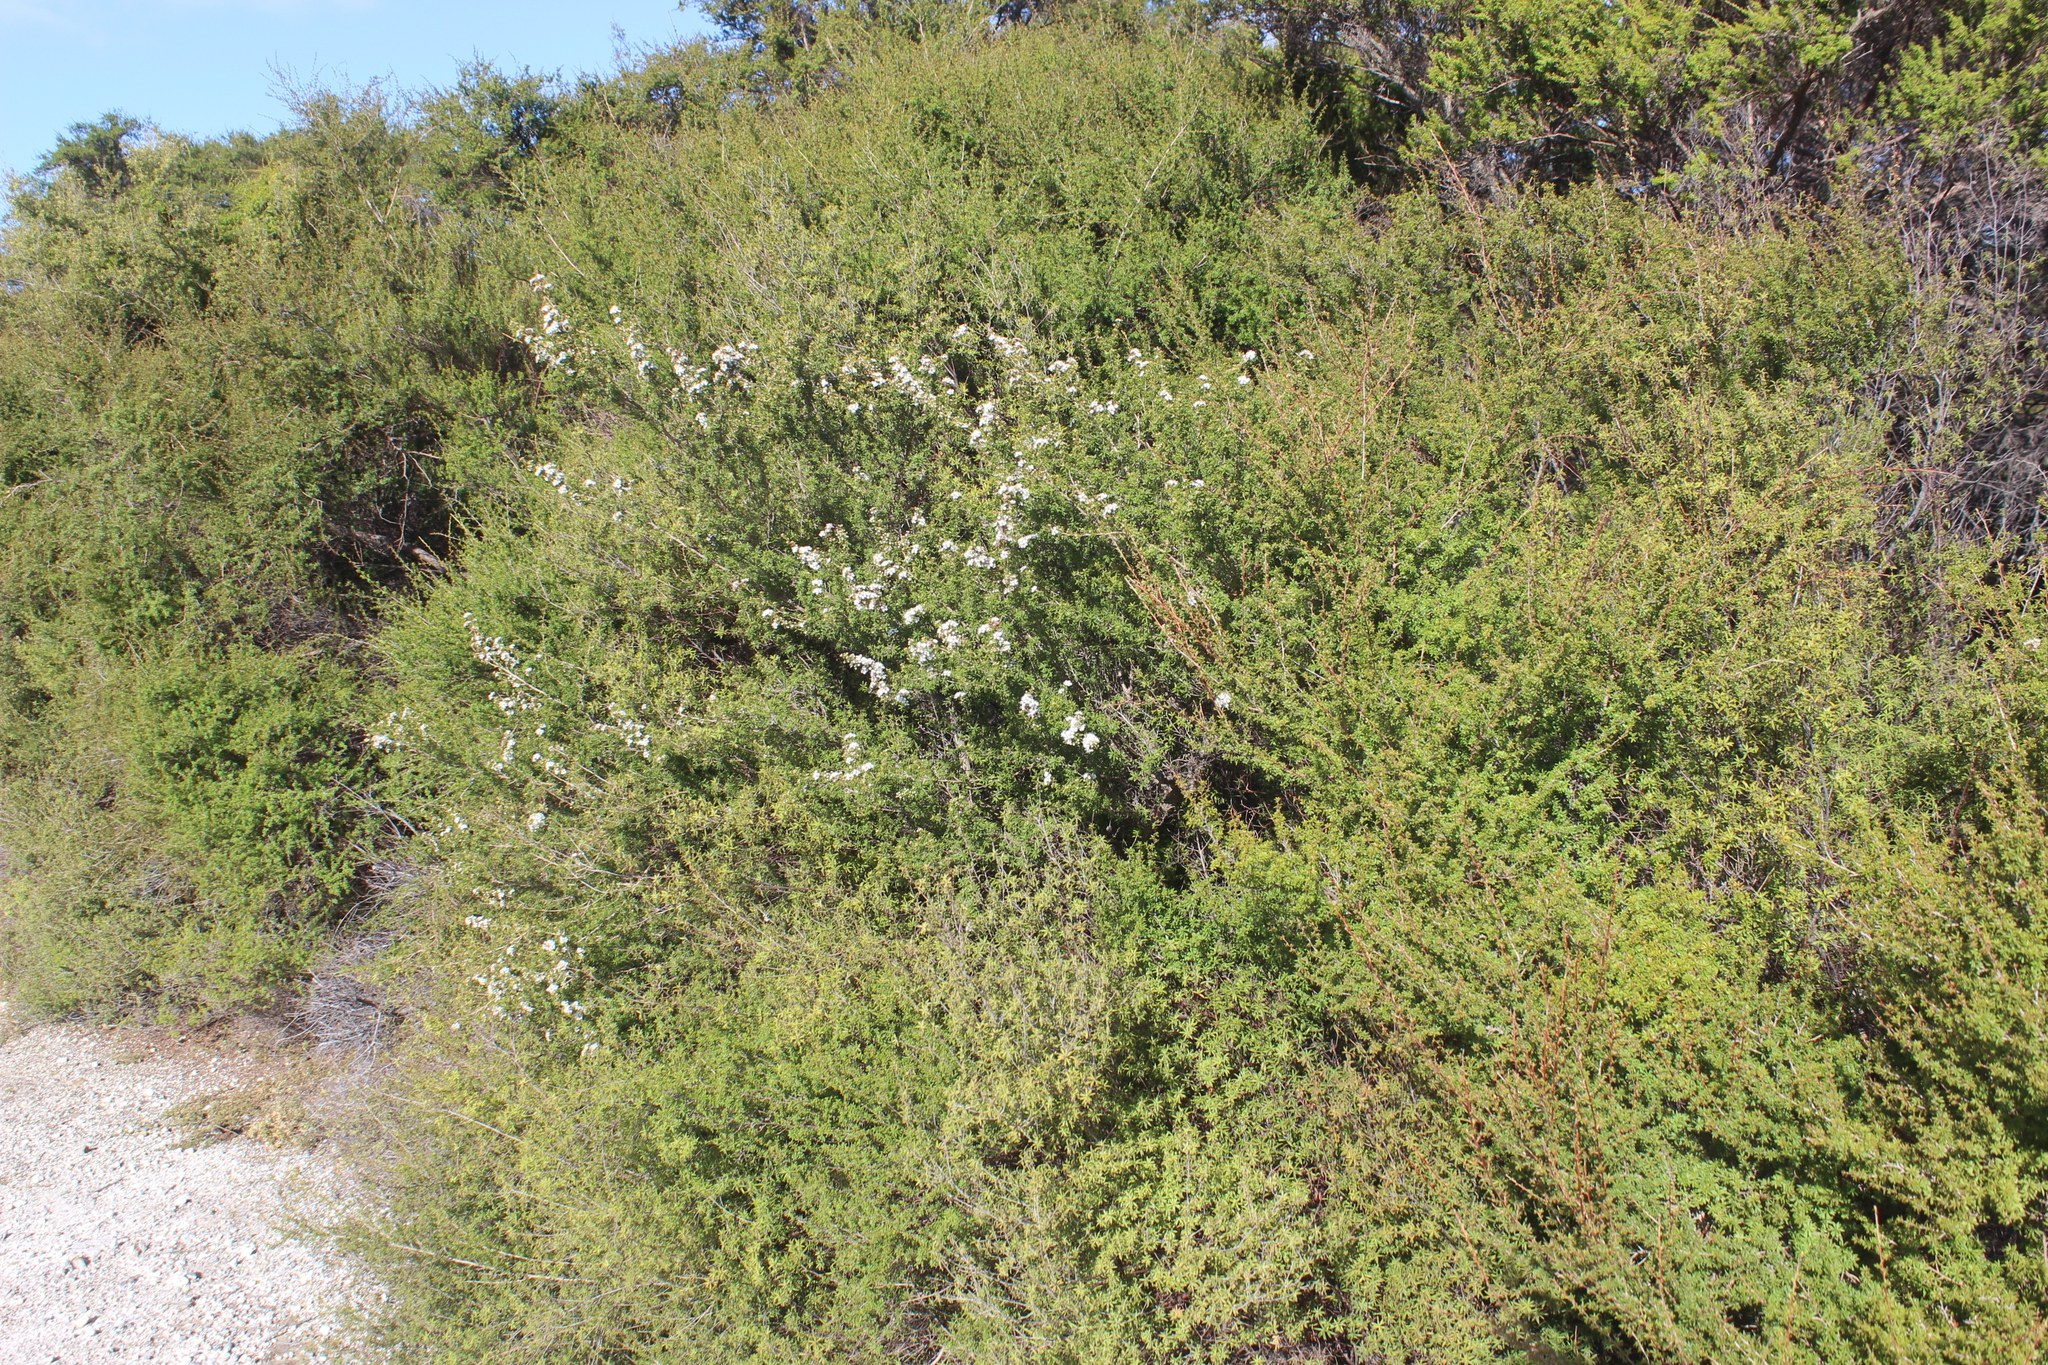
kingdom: Plantae
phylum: Tracheophyta
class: Magnoliopsida
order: Myrtales
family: Myrtaceae
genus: Leptospermum
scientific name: Leptospermum scoparium
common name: Broom tea-tree
